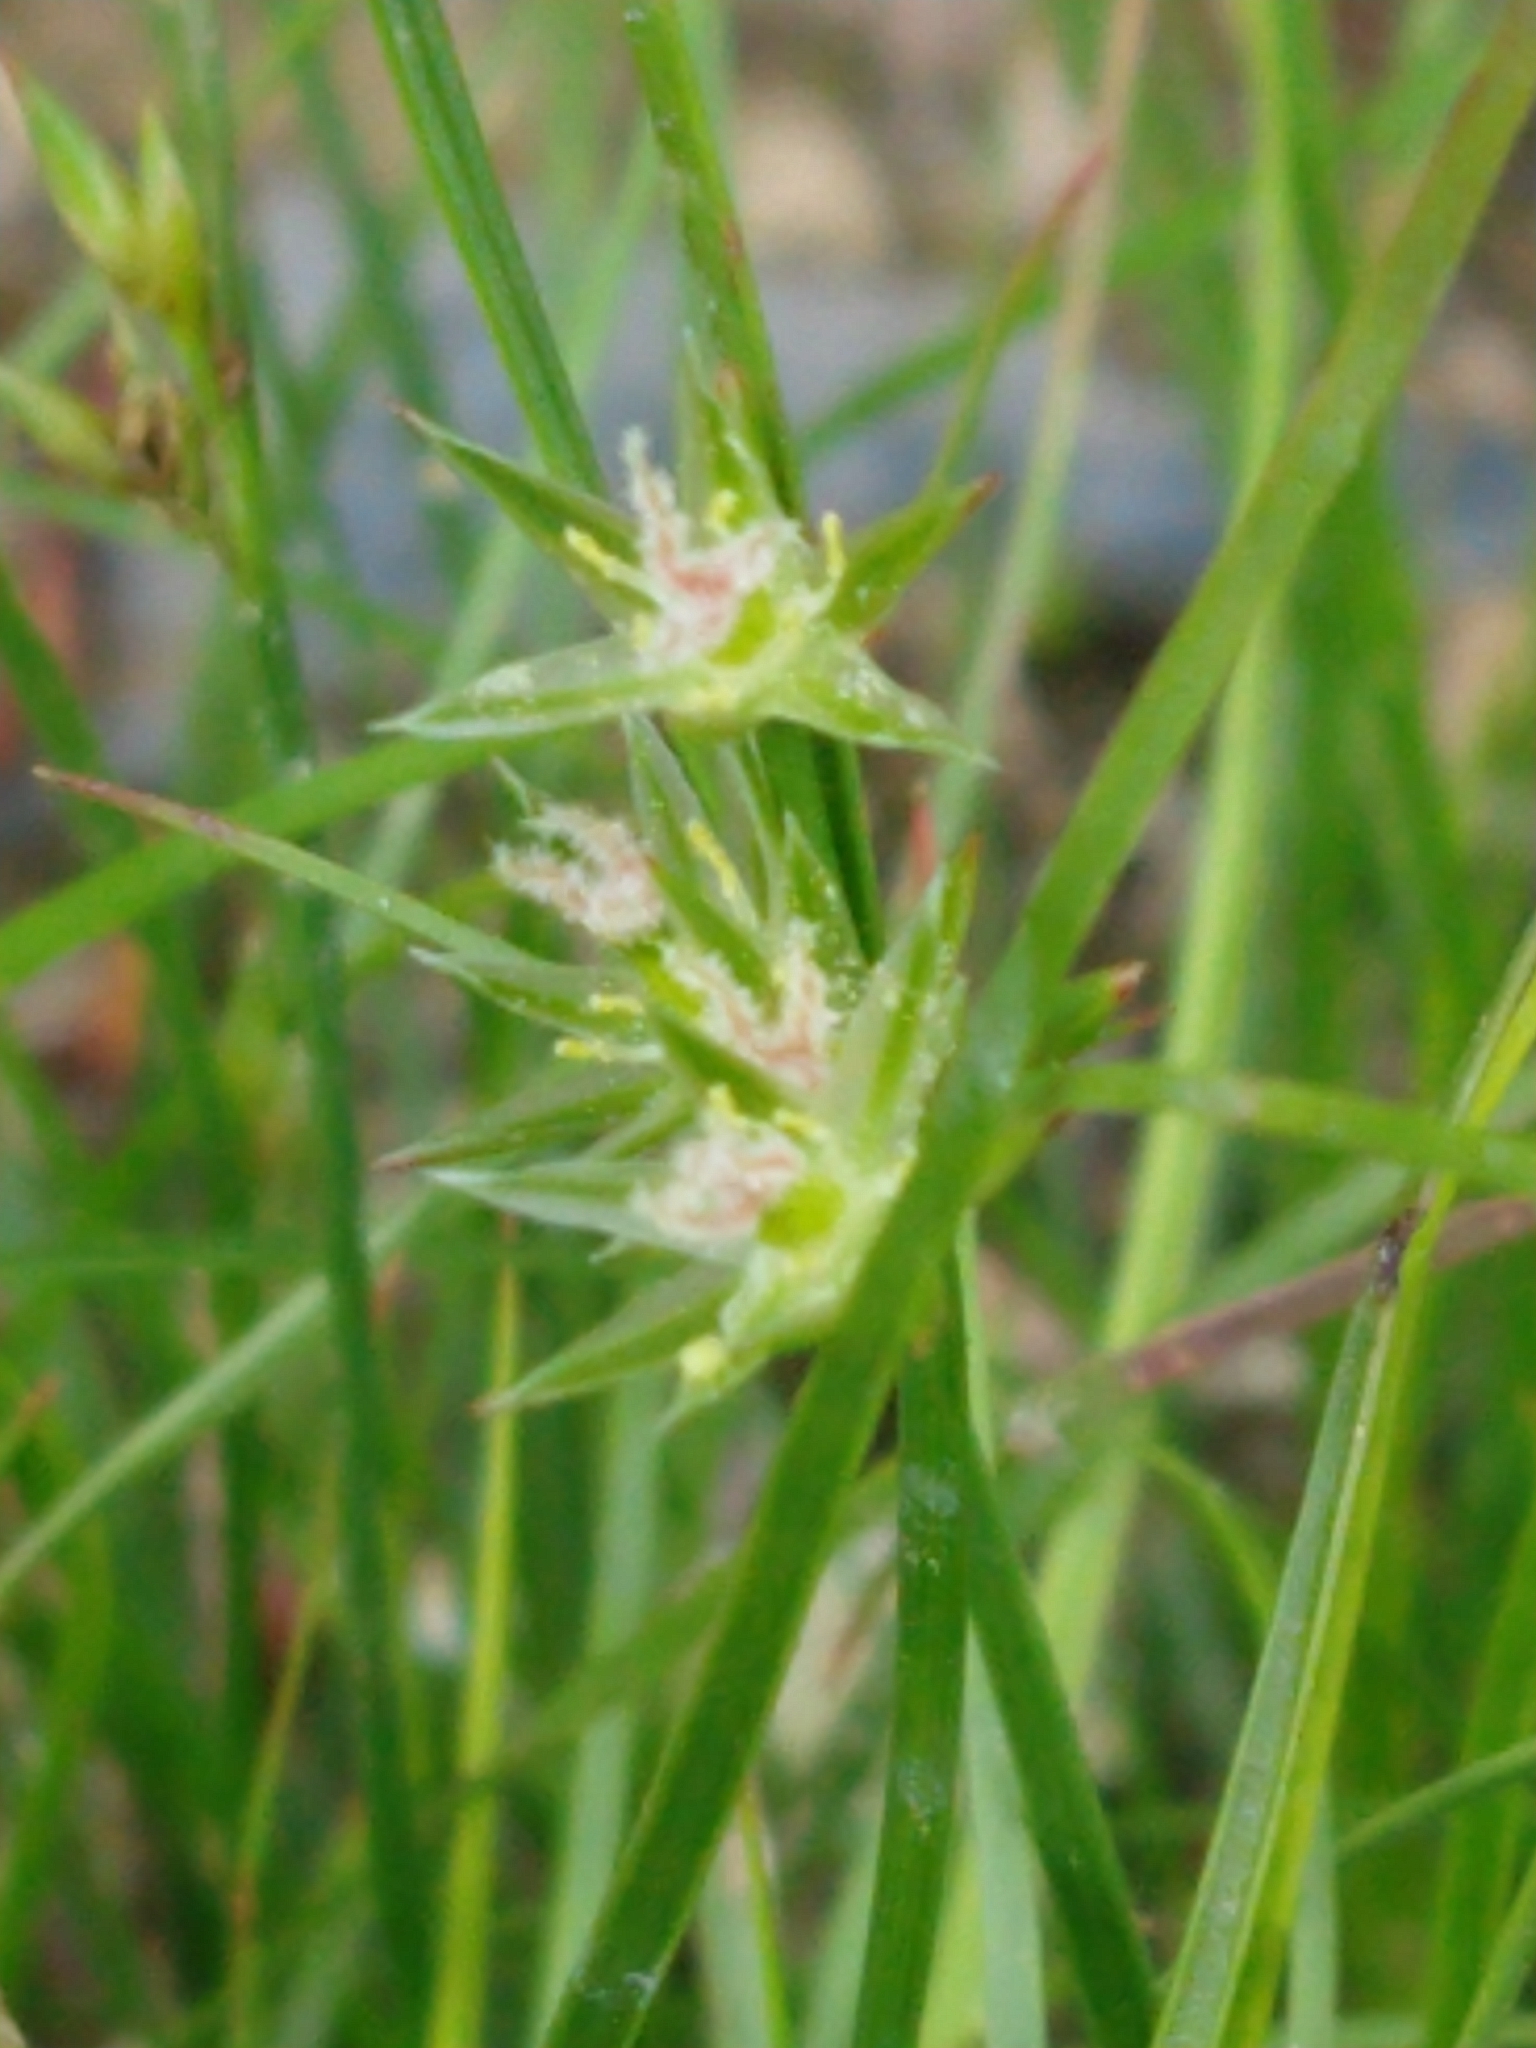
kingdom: Plantae
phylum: Tracheophyta
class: Liliopsida
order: Poales
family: Juncaceae
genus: Juncus
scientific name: Juncus tenuis
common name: Slender rush
